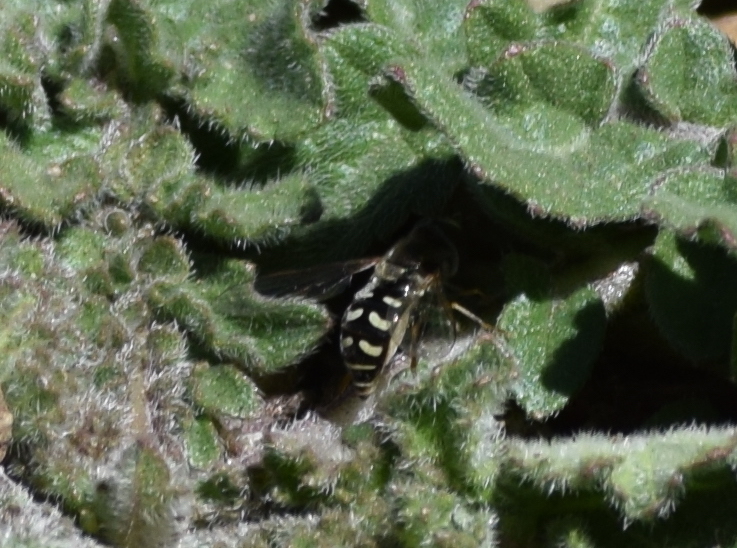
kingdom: Animalia
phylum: Arthropoda
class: Insecta
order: Diptera
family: Syrphidae
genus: Eupeodes
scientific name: Eupeodes volucris
